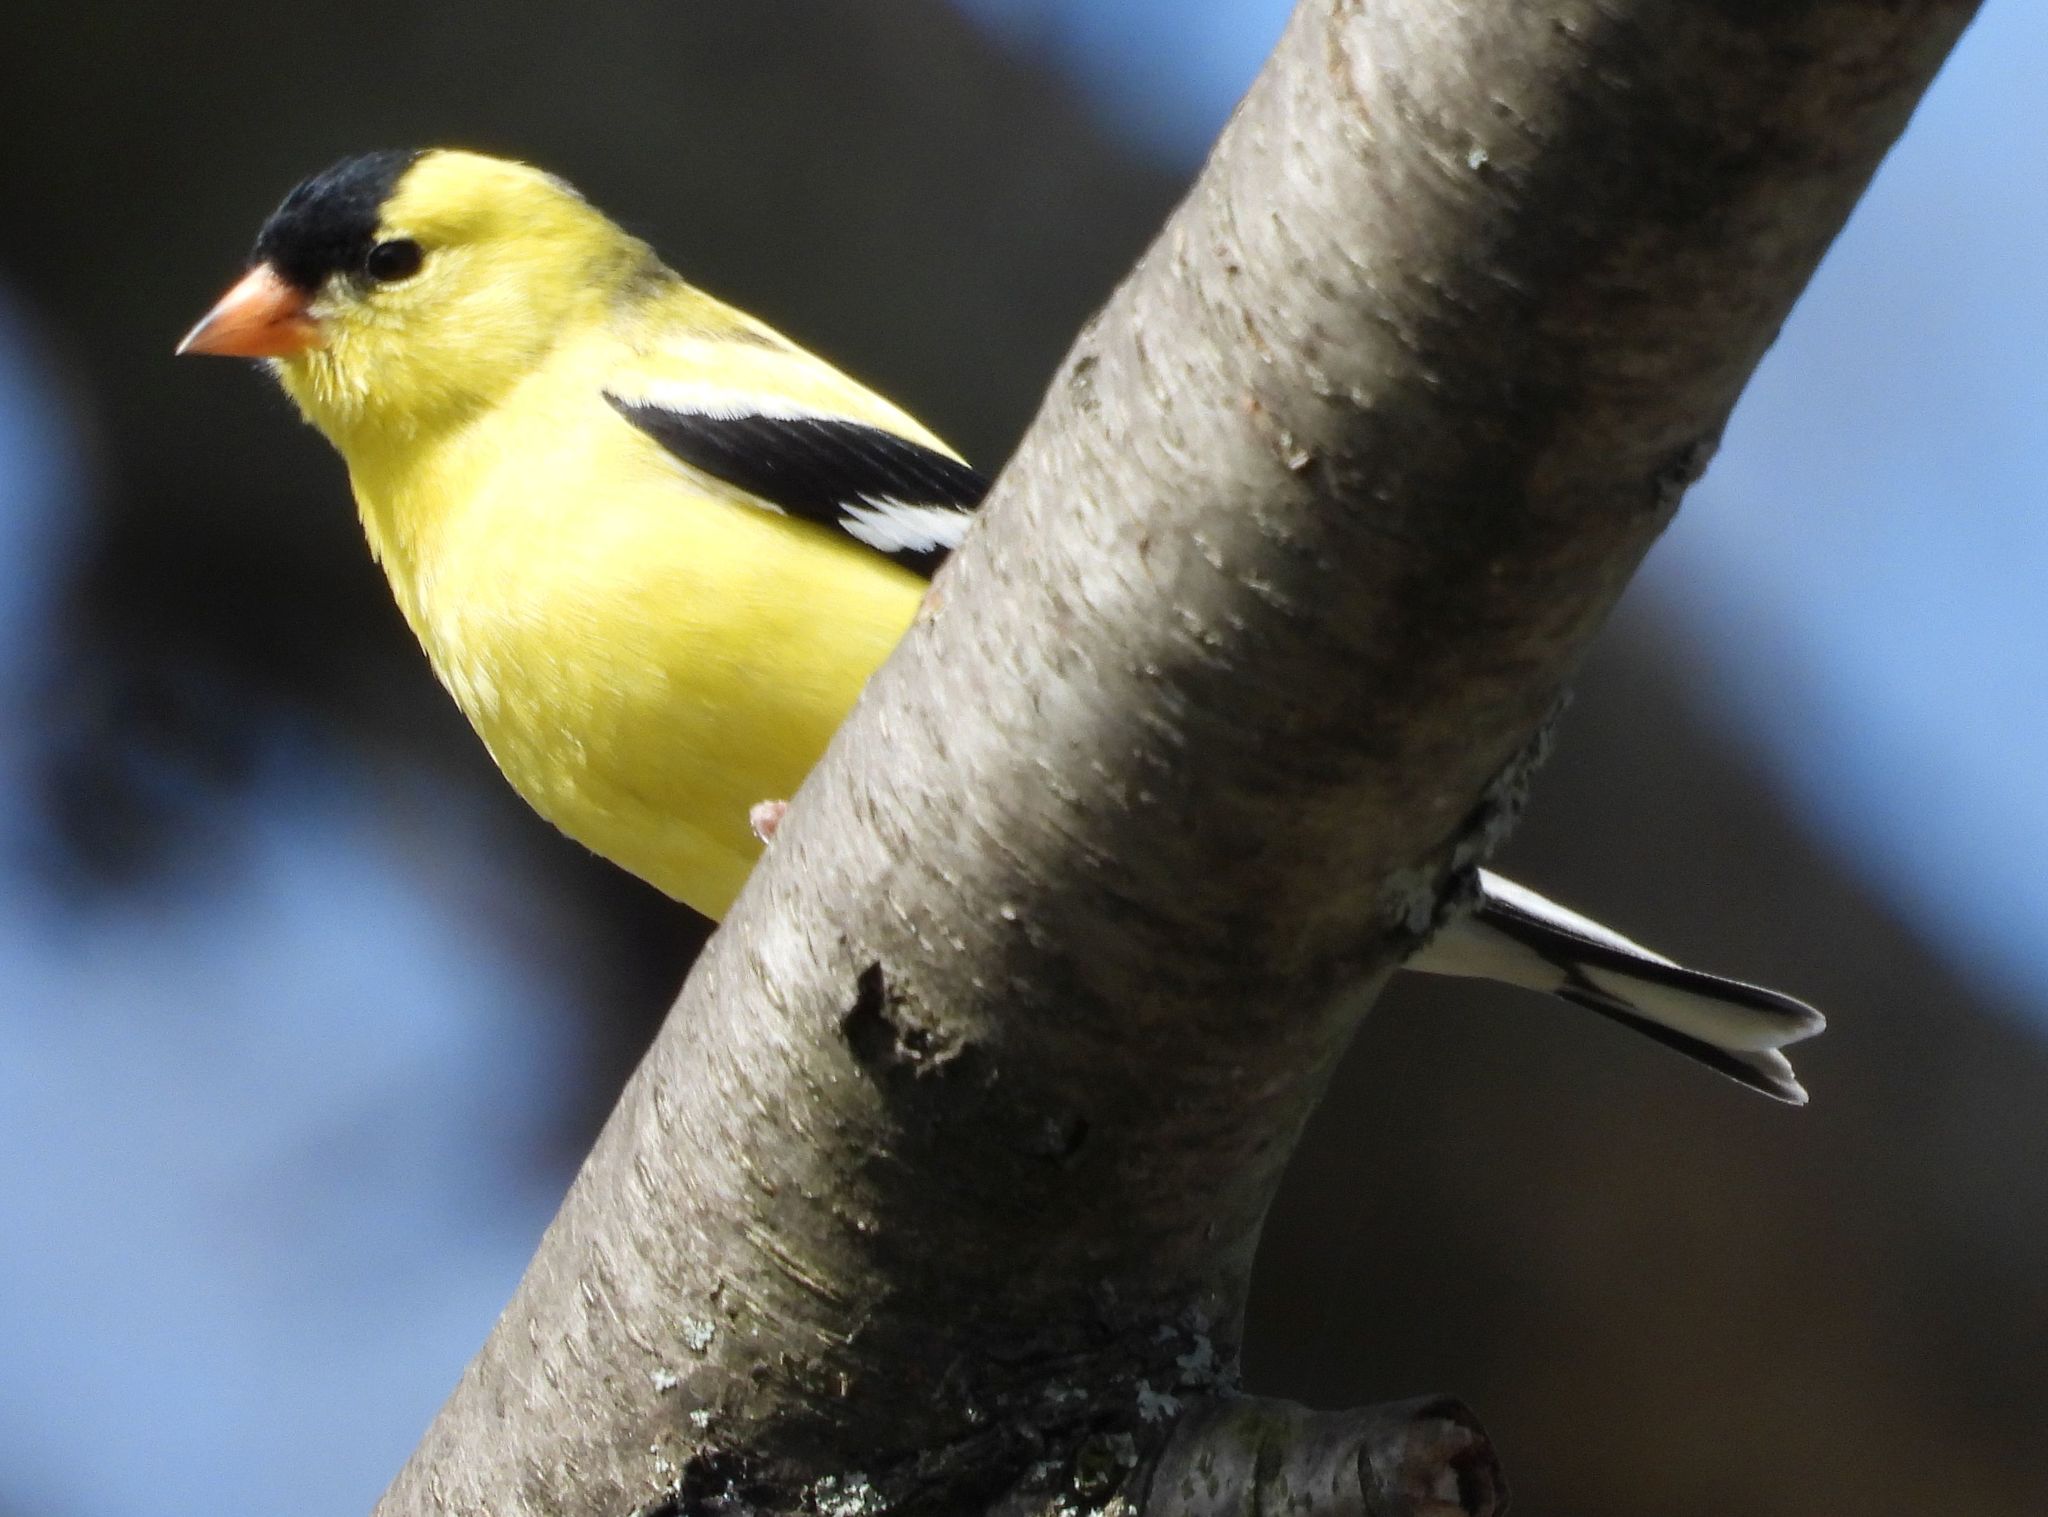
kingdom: Animalia
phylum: Chordata
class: Aves
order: Passeriformes
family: Fringillidae
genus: Spinus
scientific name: Spinus tristis
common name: American goldfinch
